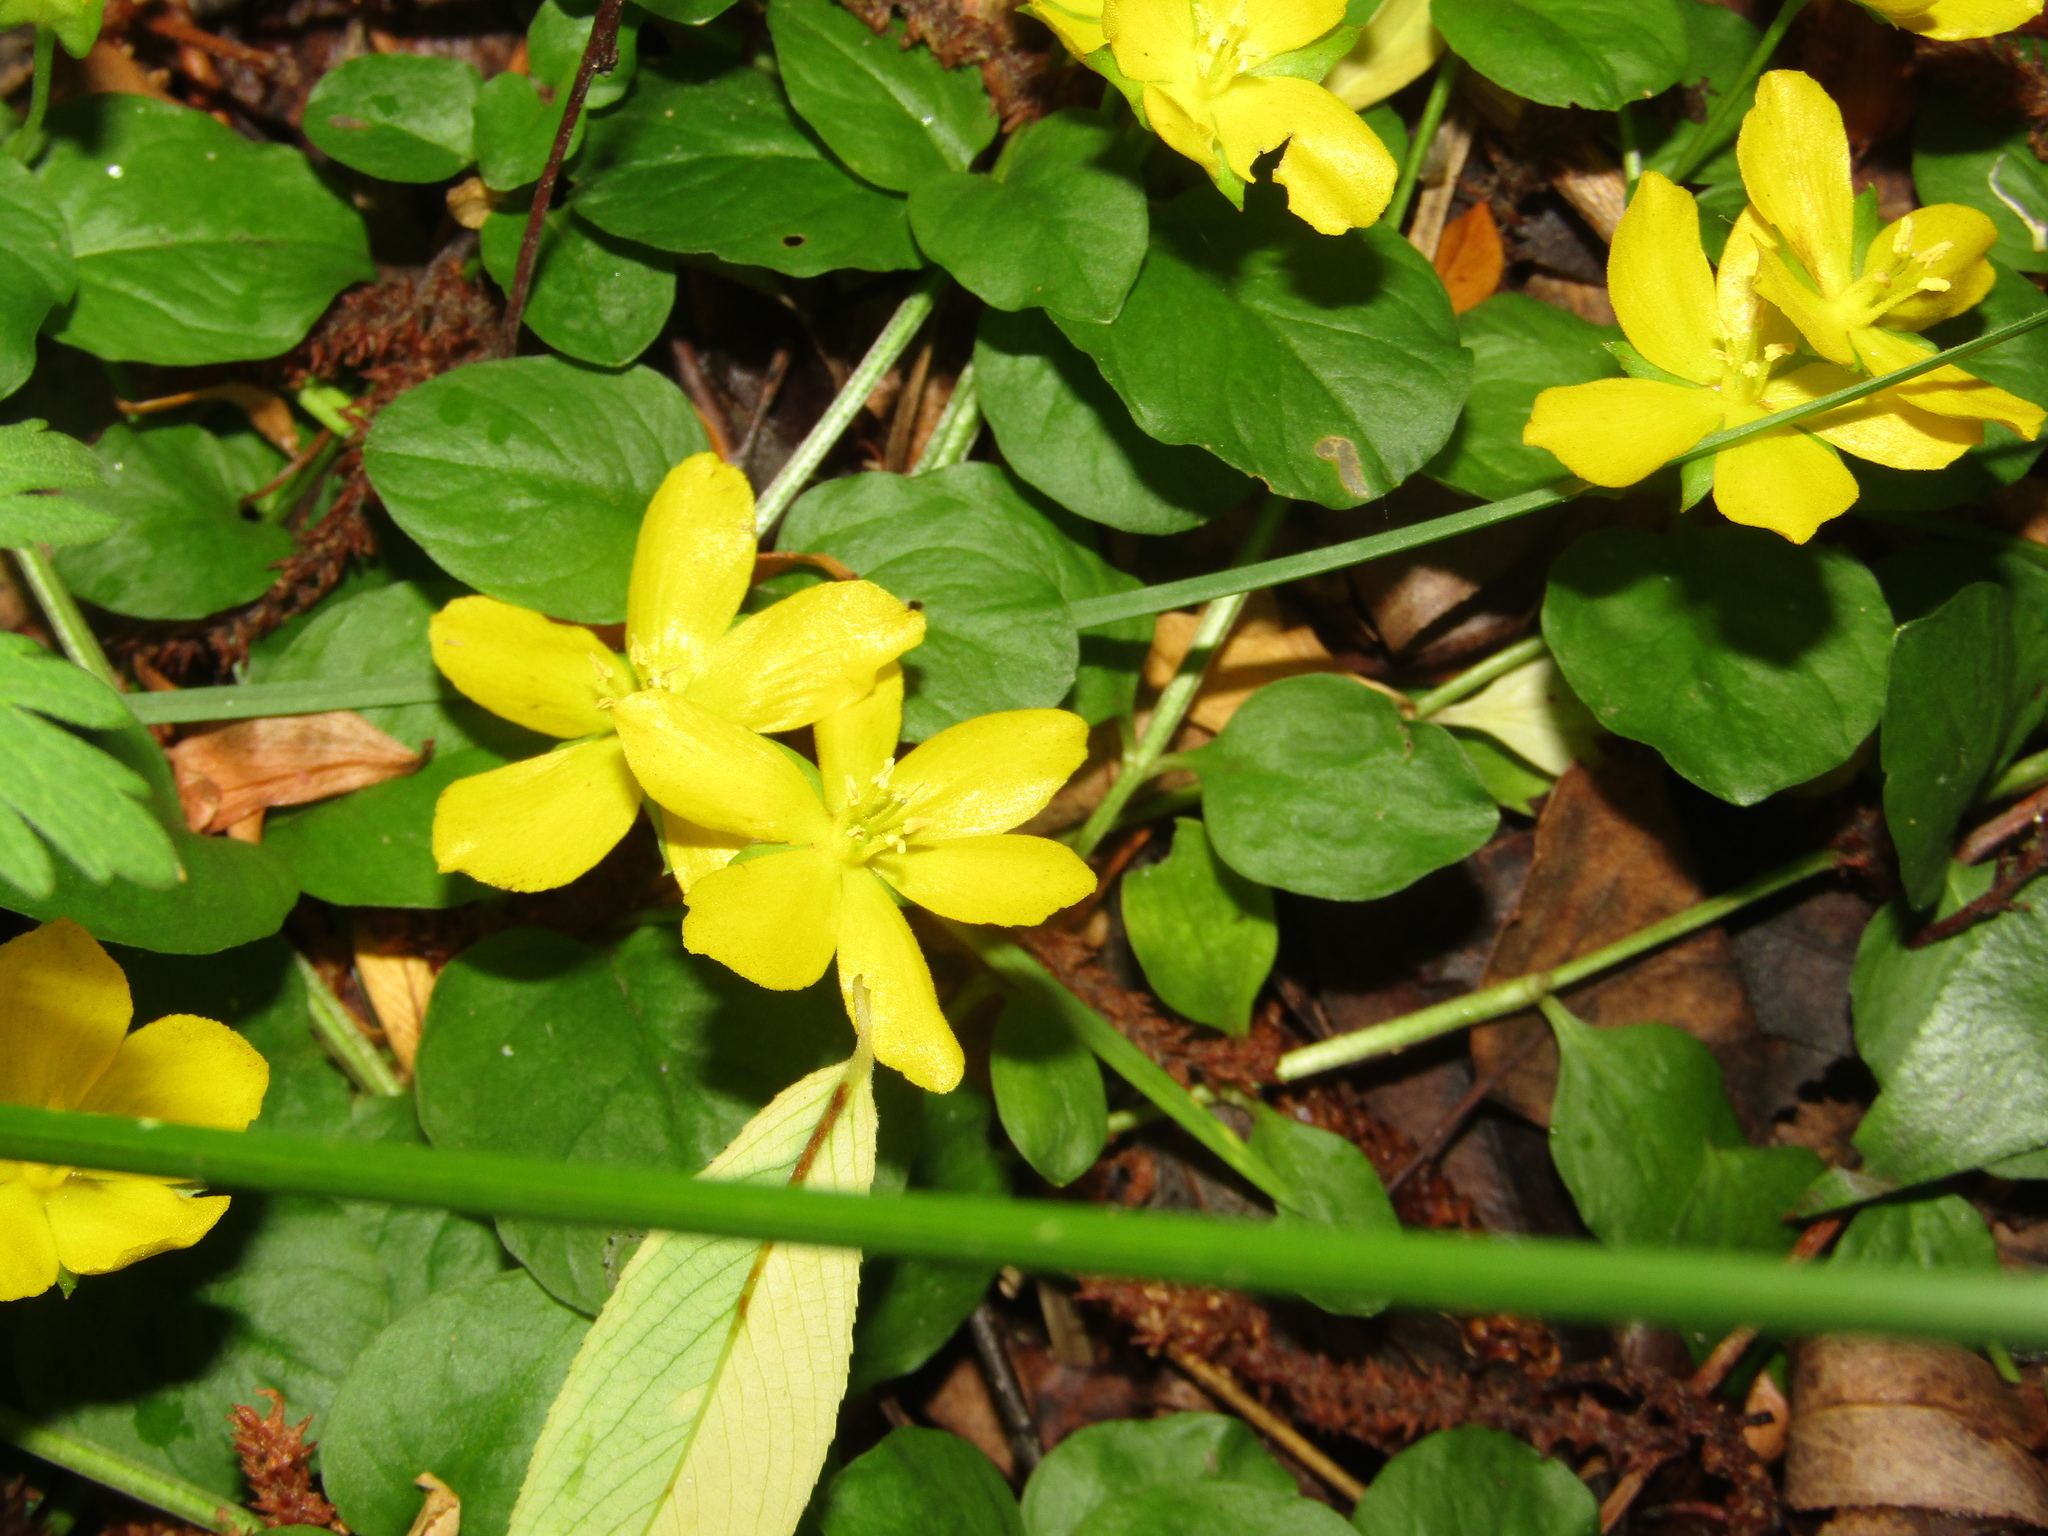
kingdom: Plantae
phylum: Tracheophyta
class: Magnoliopsida
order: Ericales
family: Primulaceae
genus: Lysimachia
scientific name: Lysimachia nummularia
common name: Moneywort
